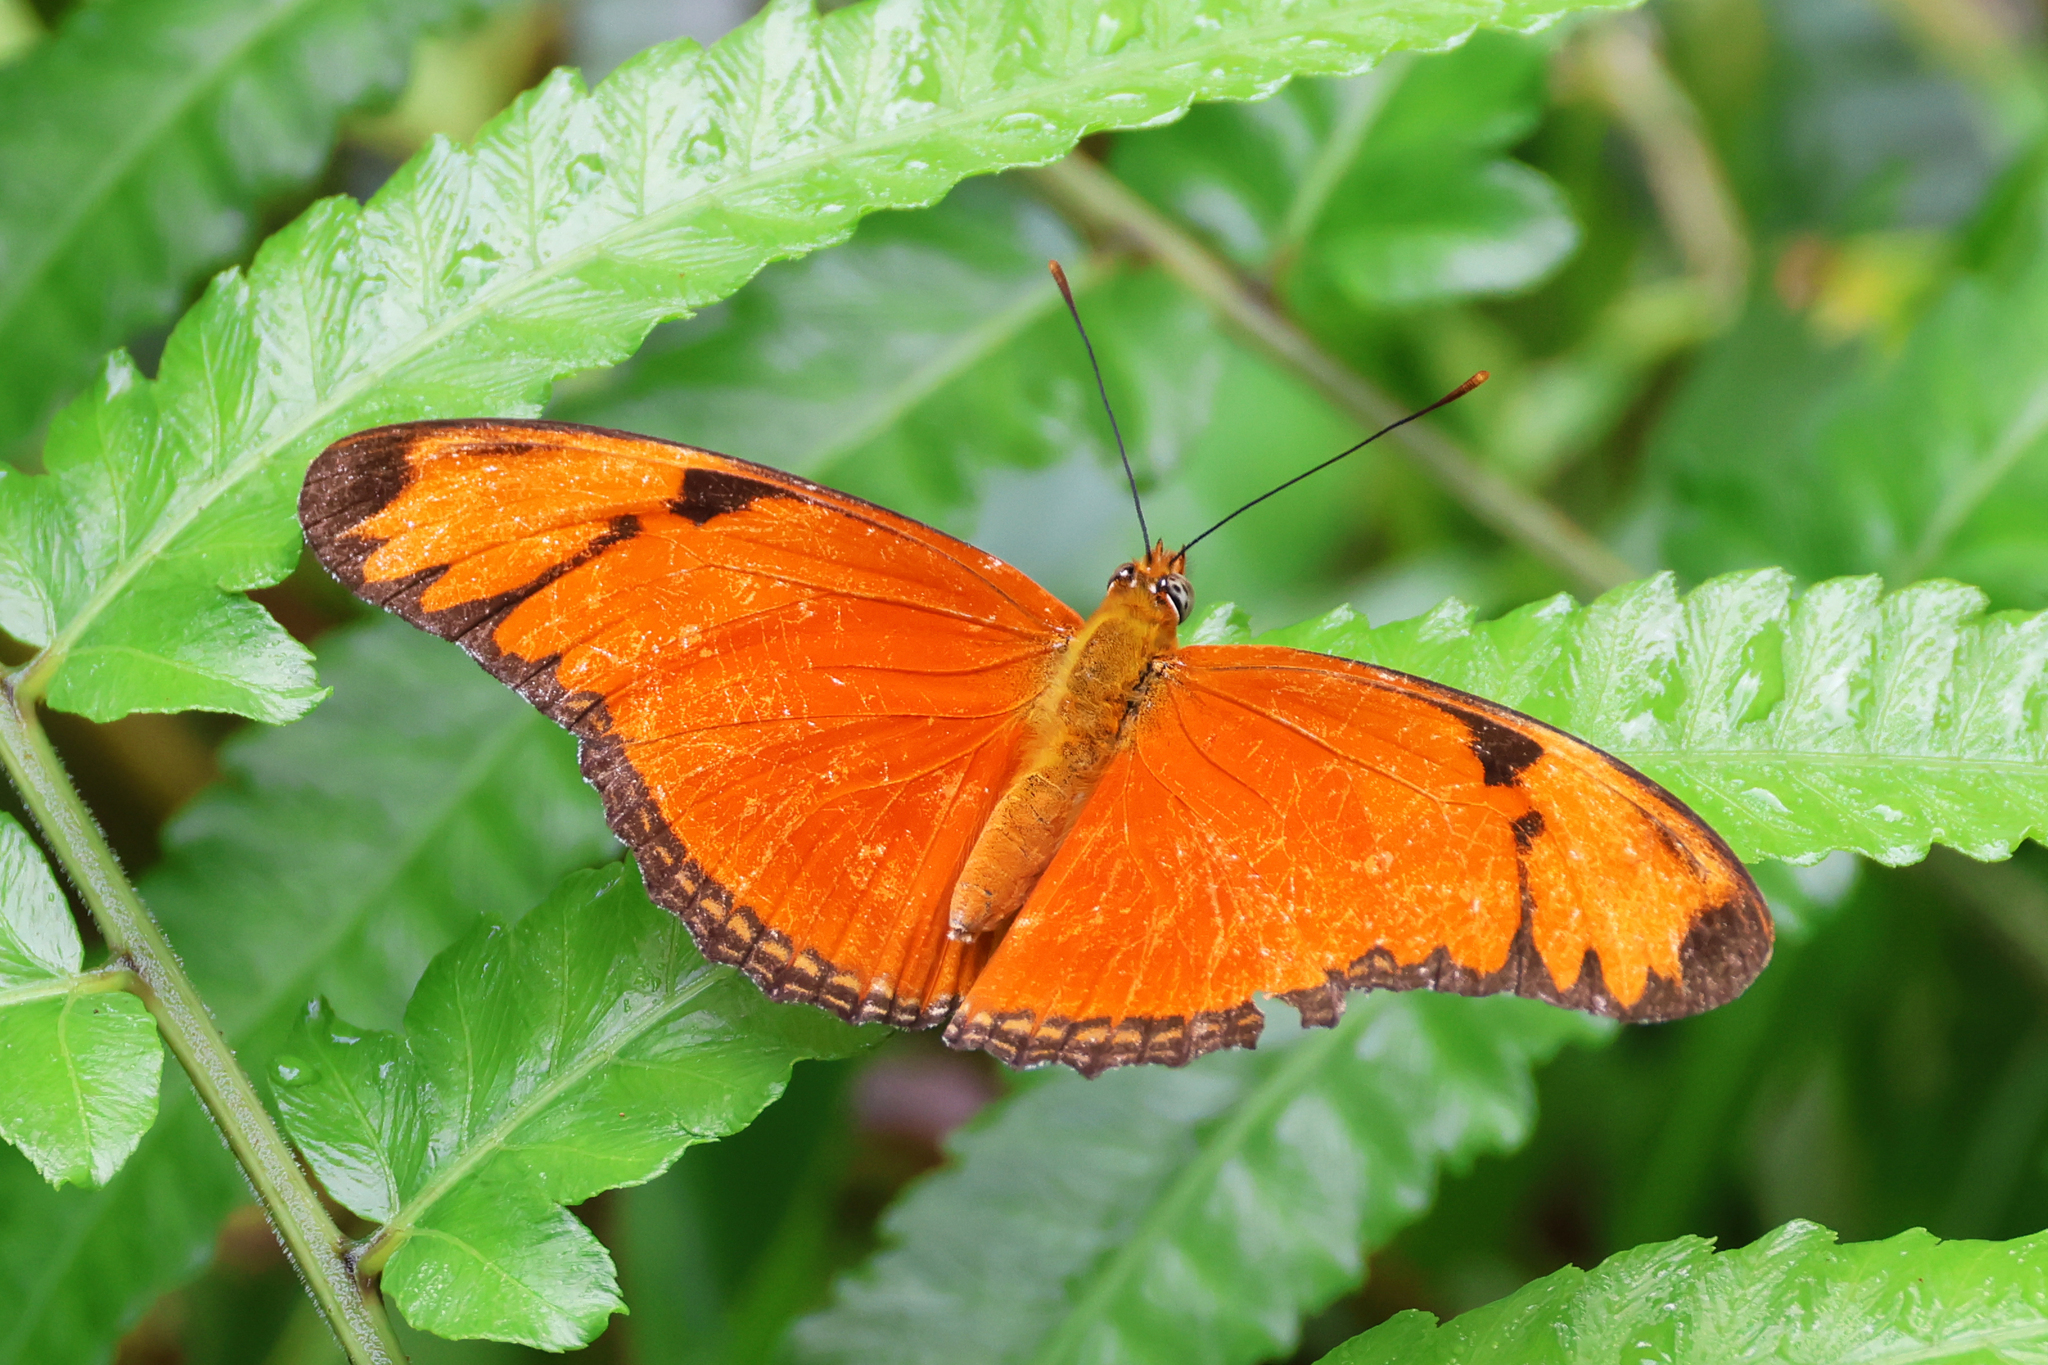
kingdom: Animalia
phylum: Arthropoda
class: Insecta
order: Lepidoptera
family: Nymphalidae
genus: Dryas
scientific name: Dryas iulia
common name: Flambeau
